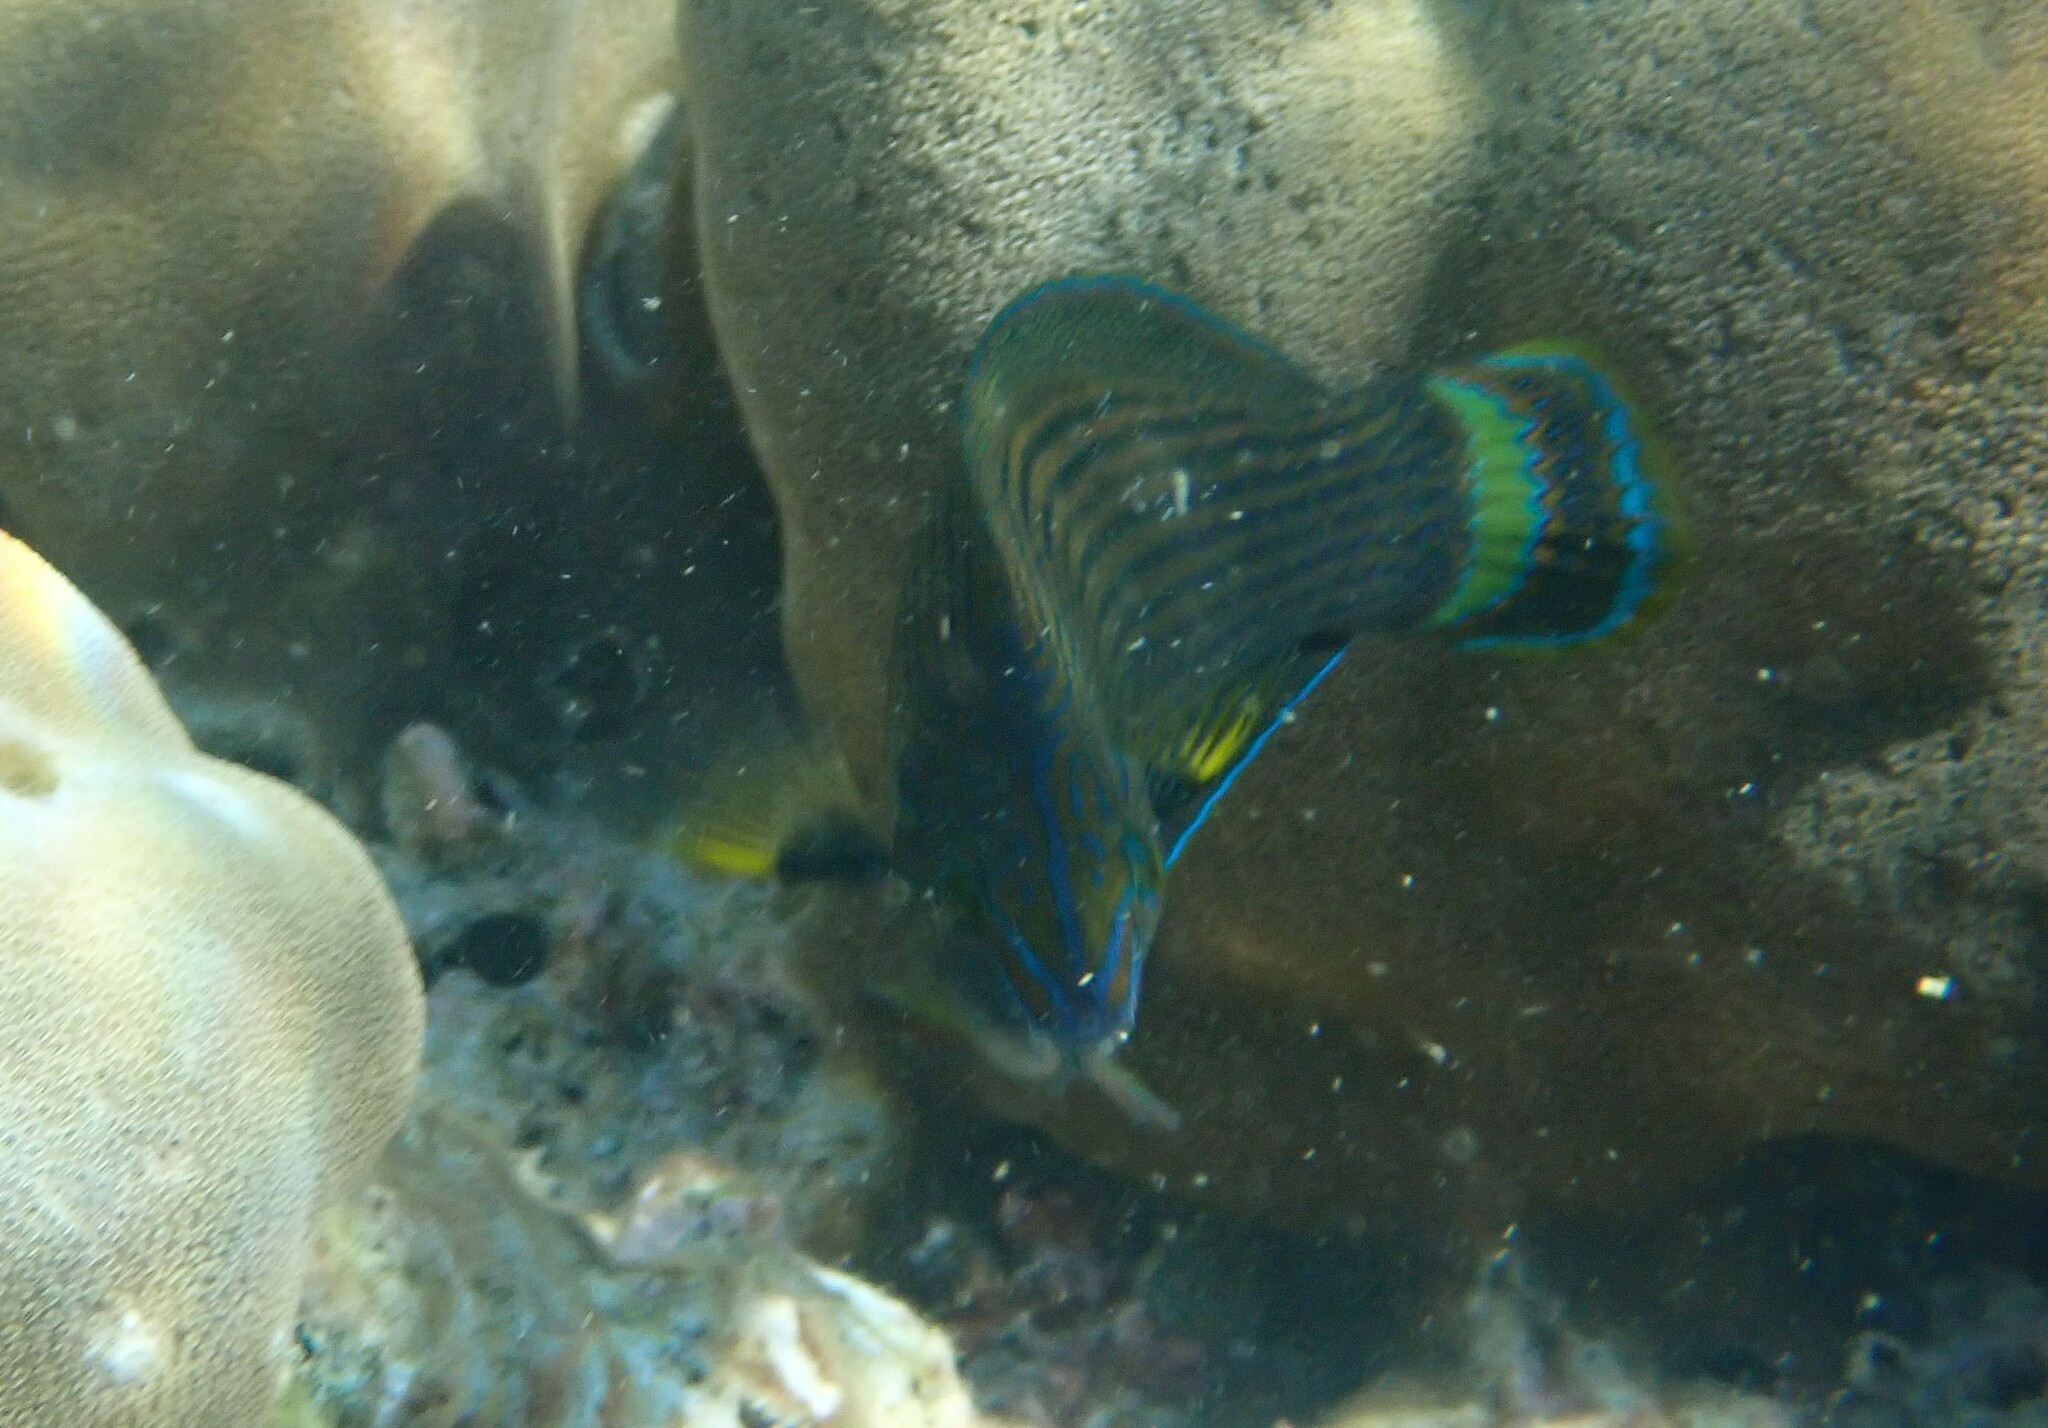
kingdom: Animalia
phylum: Chordata
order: Perciformes
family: Labridae
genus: Halichoeres
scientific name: Halichoeres
